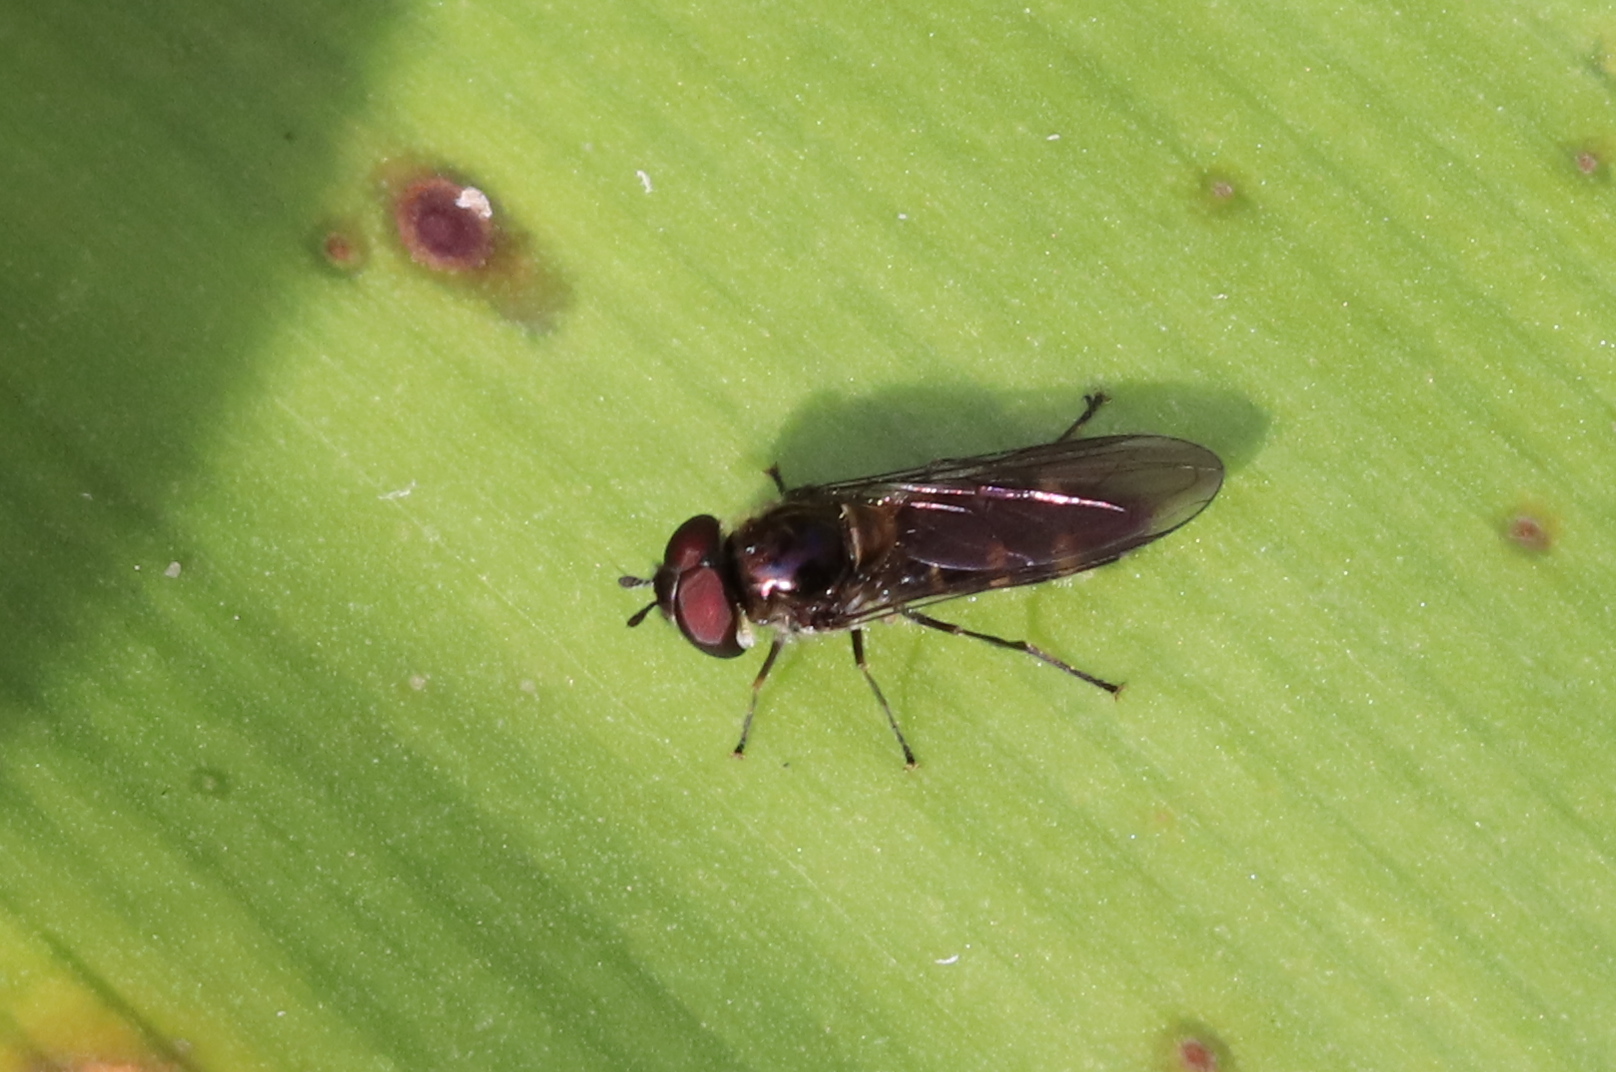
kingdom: Animalia
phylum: Arthropoda
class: Insecta
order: Diptera
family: Syrphidae
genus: Melangyna
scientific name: Melangyna novaezelandiae
